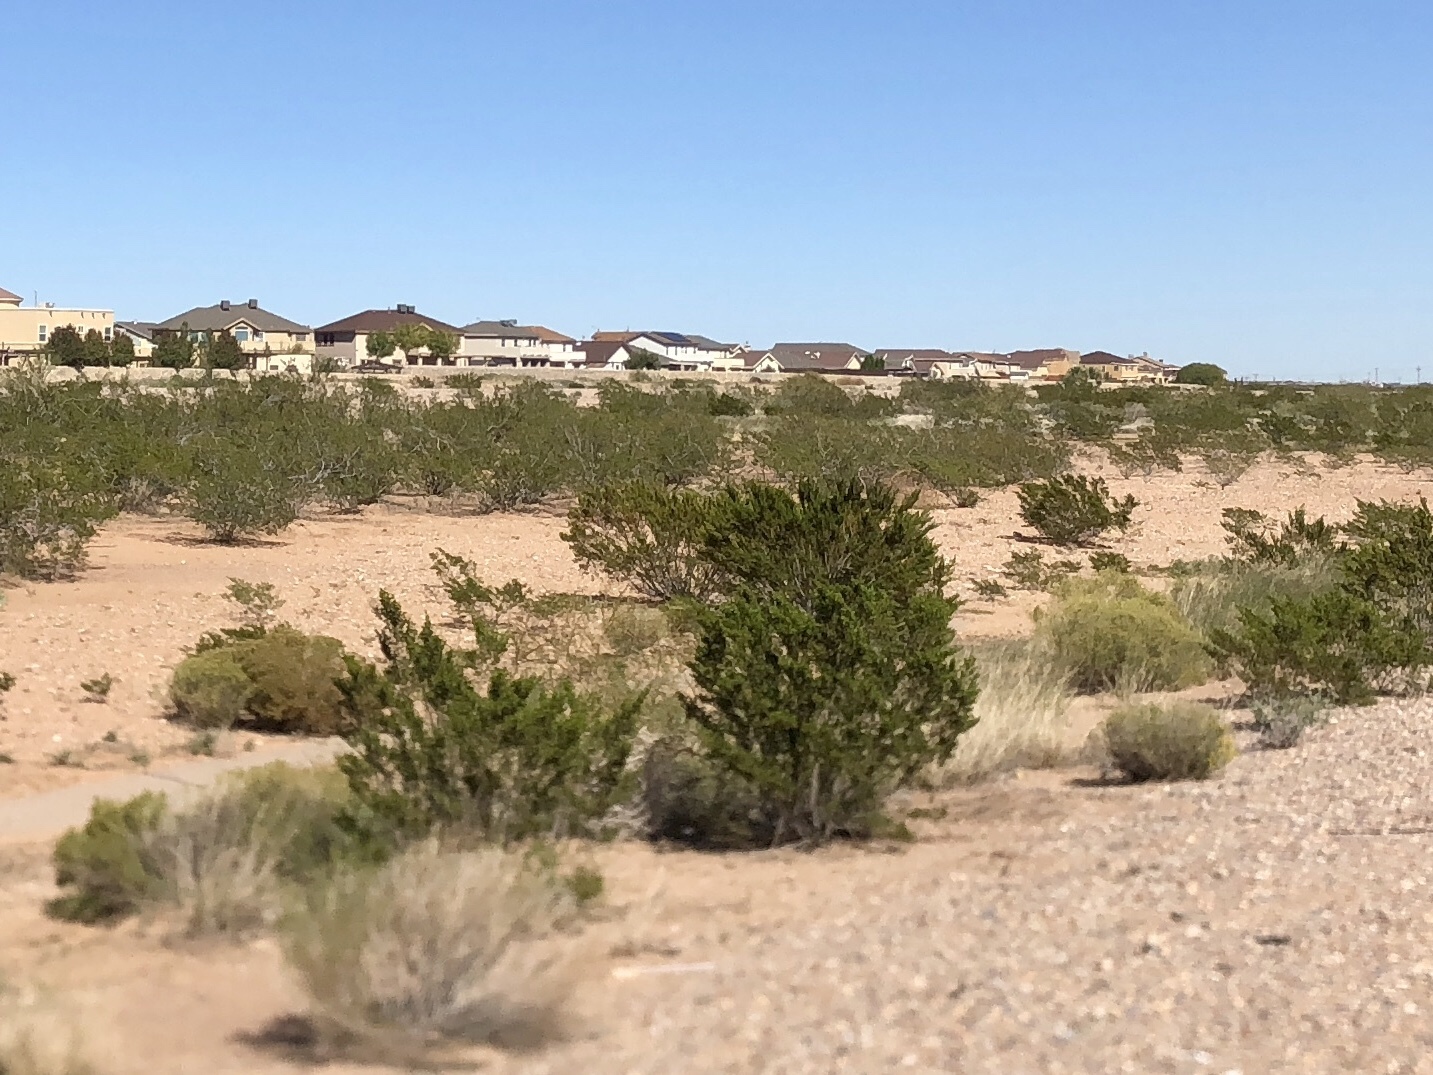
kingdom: Plantae
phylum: Tracheophyta
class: Magnoliopsida
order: Zygophyllales
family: Zygophyllaceae
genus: Larrea
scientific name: Larrea tridentata
